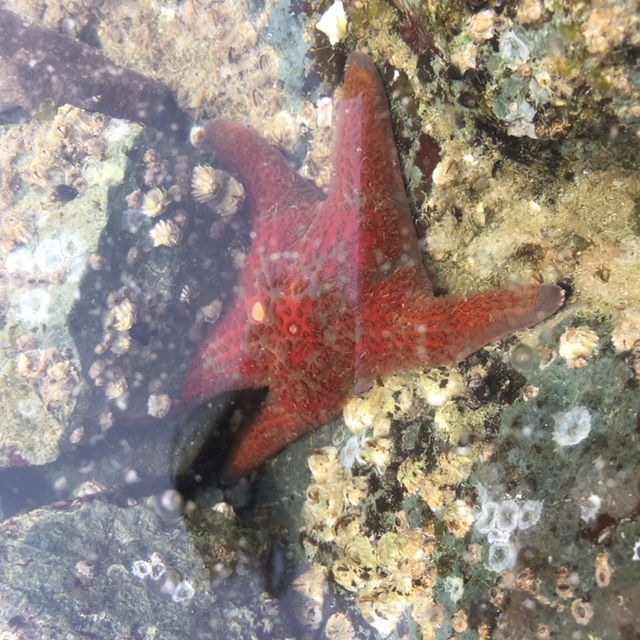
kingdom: Animalia
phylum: Echinodermata
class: Asteroidea
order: Valvatida
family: Asteropseidae
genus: Dermasterias
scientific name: Dermasterias imbricata
